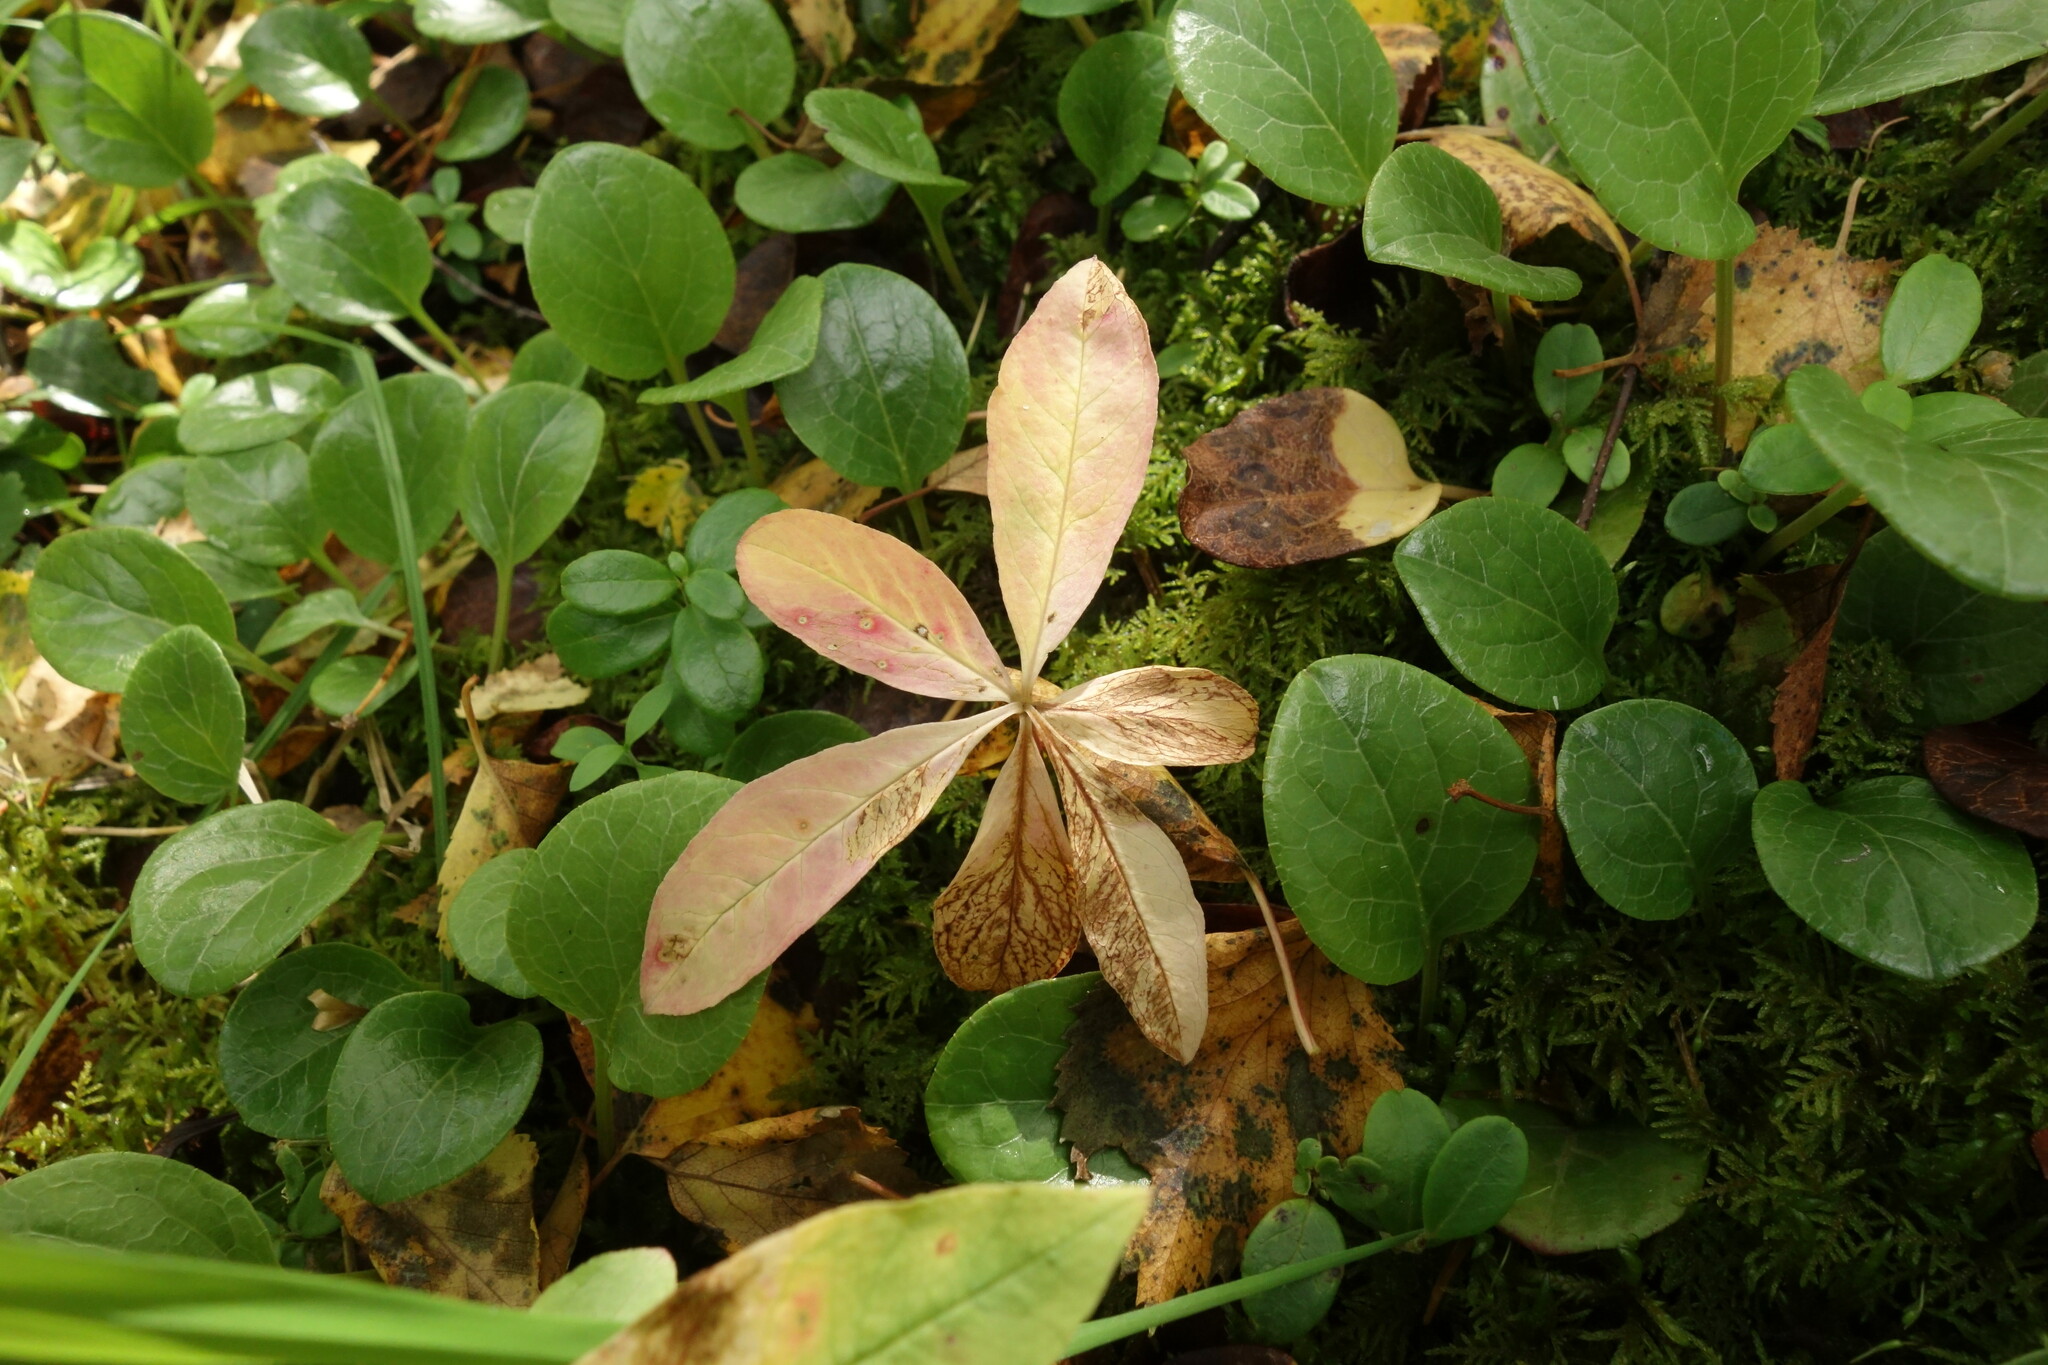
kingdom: Plantae
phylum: Tracheophyta
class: Magnoliopsida
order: Ericales
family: Primulaceae
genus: Lysimachia
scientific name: Lysimachia europaea
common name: Arctic starflower
